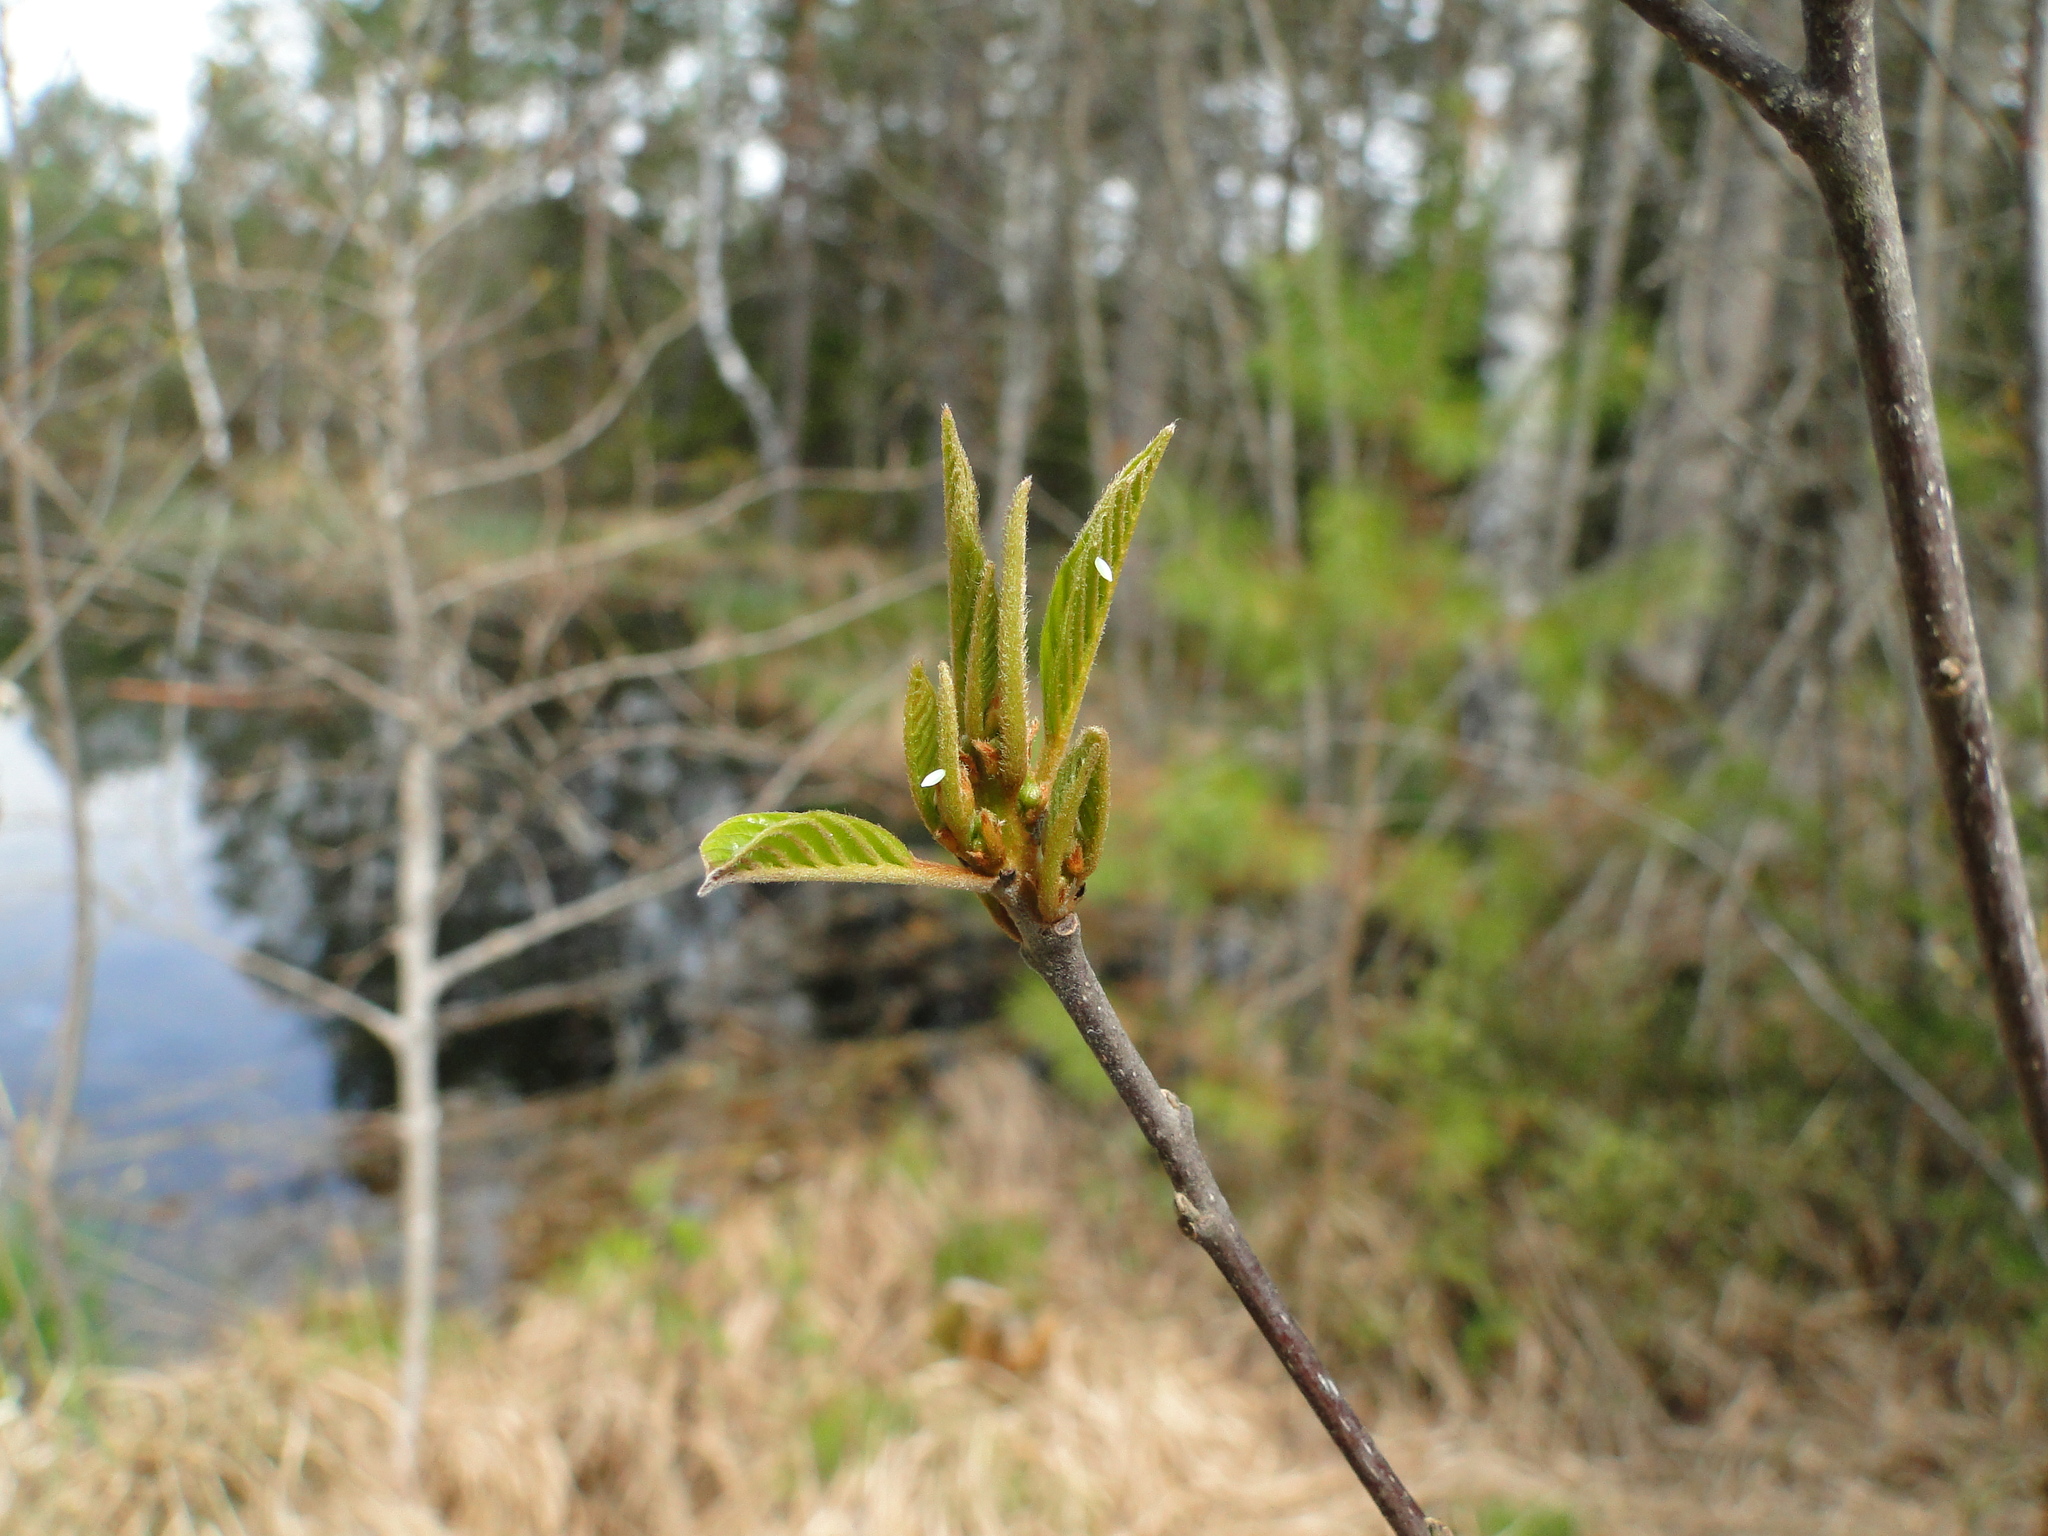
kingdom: Animalia
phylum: Arthropoda
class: Insecta
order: Lepidoptera
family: Pieridae
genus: Gonepteryx
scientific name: Gonepteryx rhamni
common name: Brimstone
